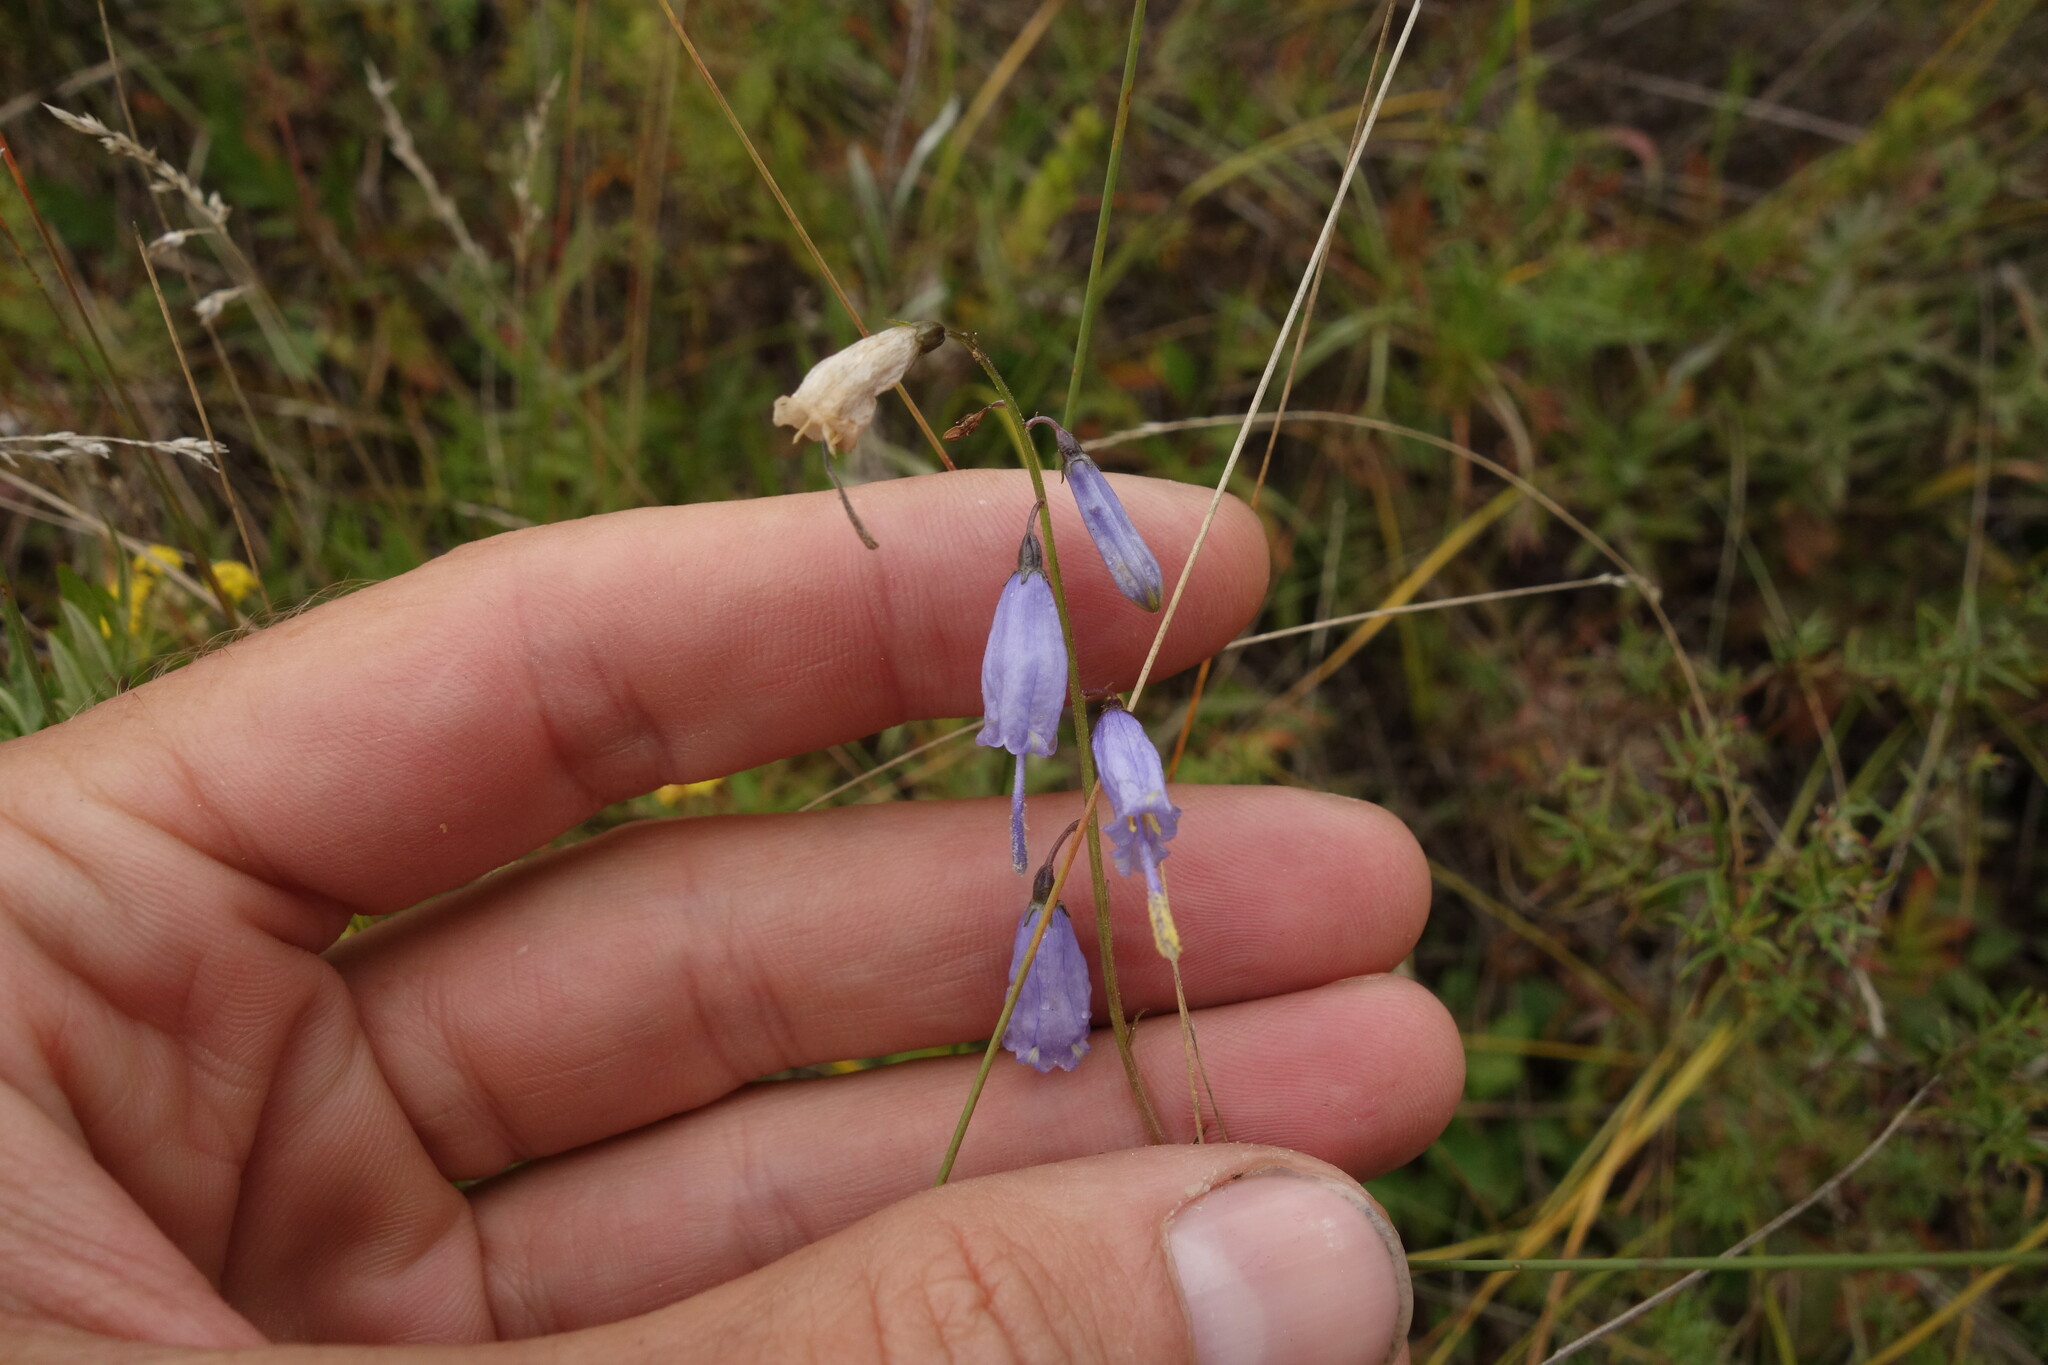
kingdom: Plantae
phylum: Tracheophyta
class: Magnoliopsida
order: Asterales
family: Campanulaceae
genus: Adenophora
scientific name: Adenophora stenanthina
